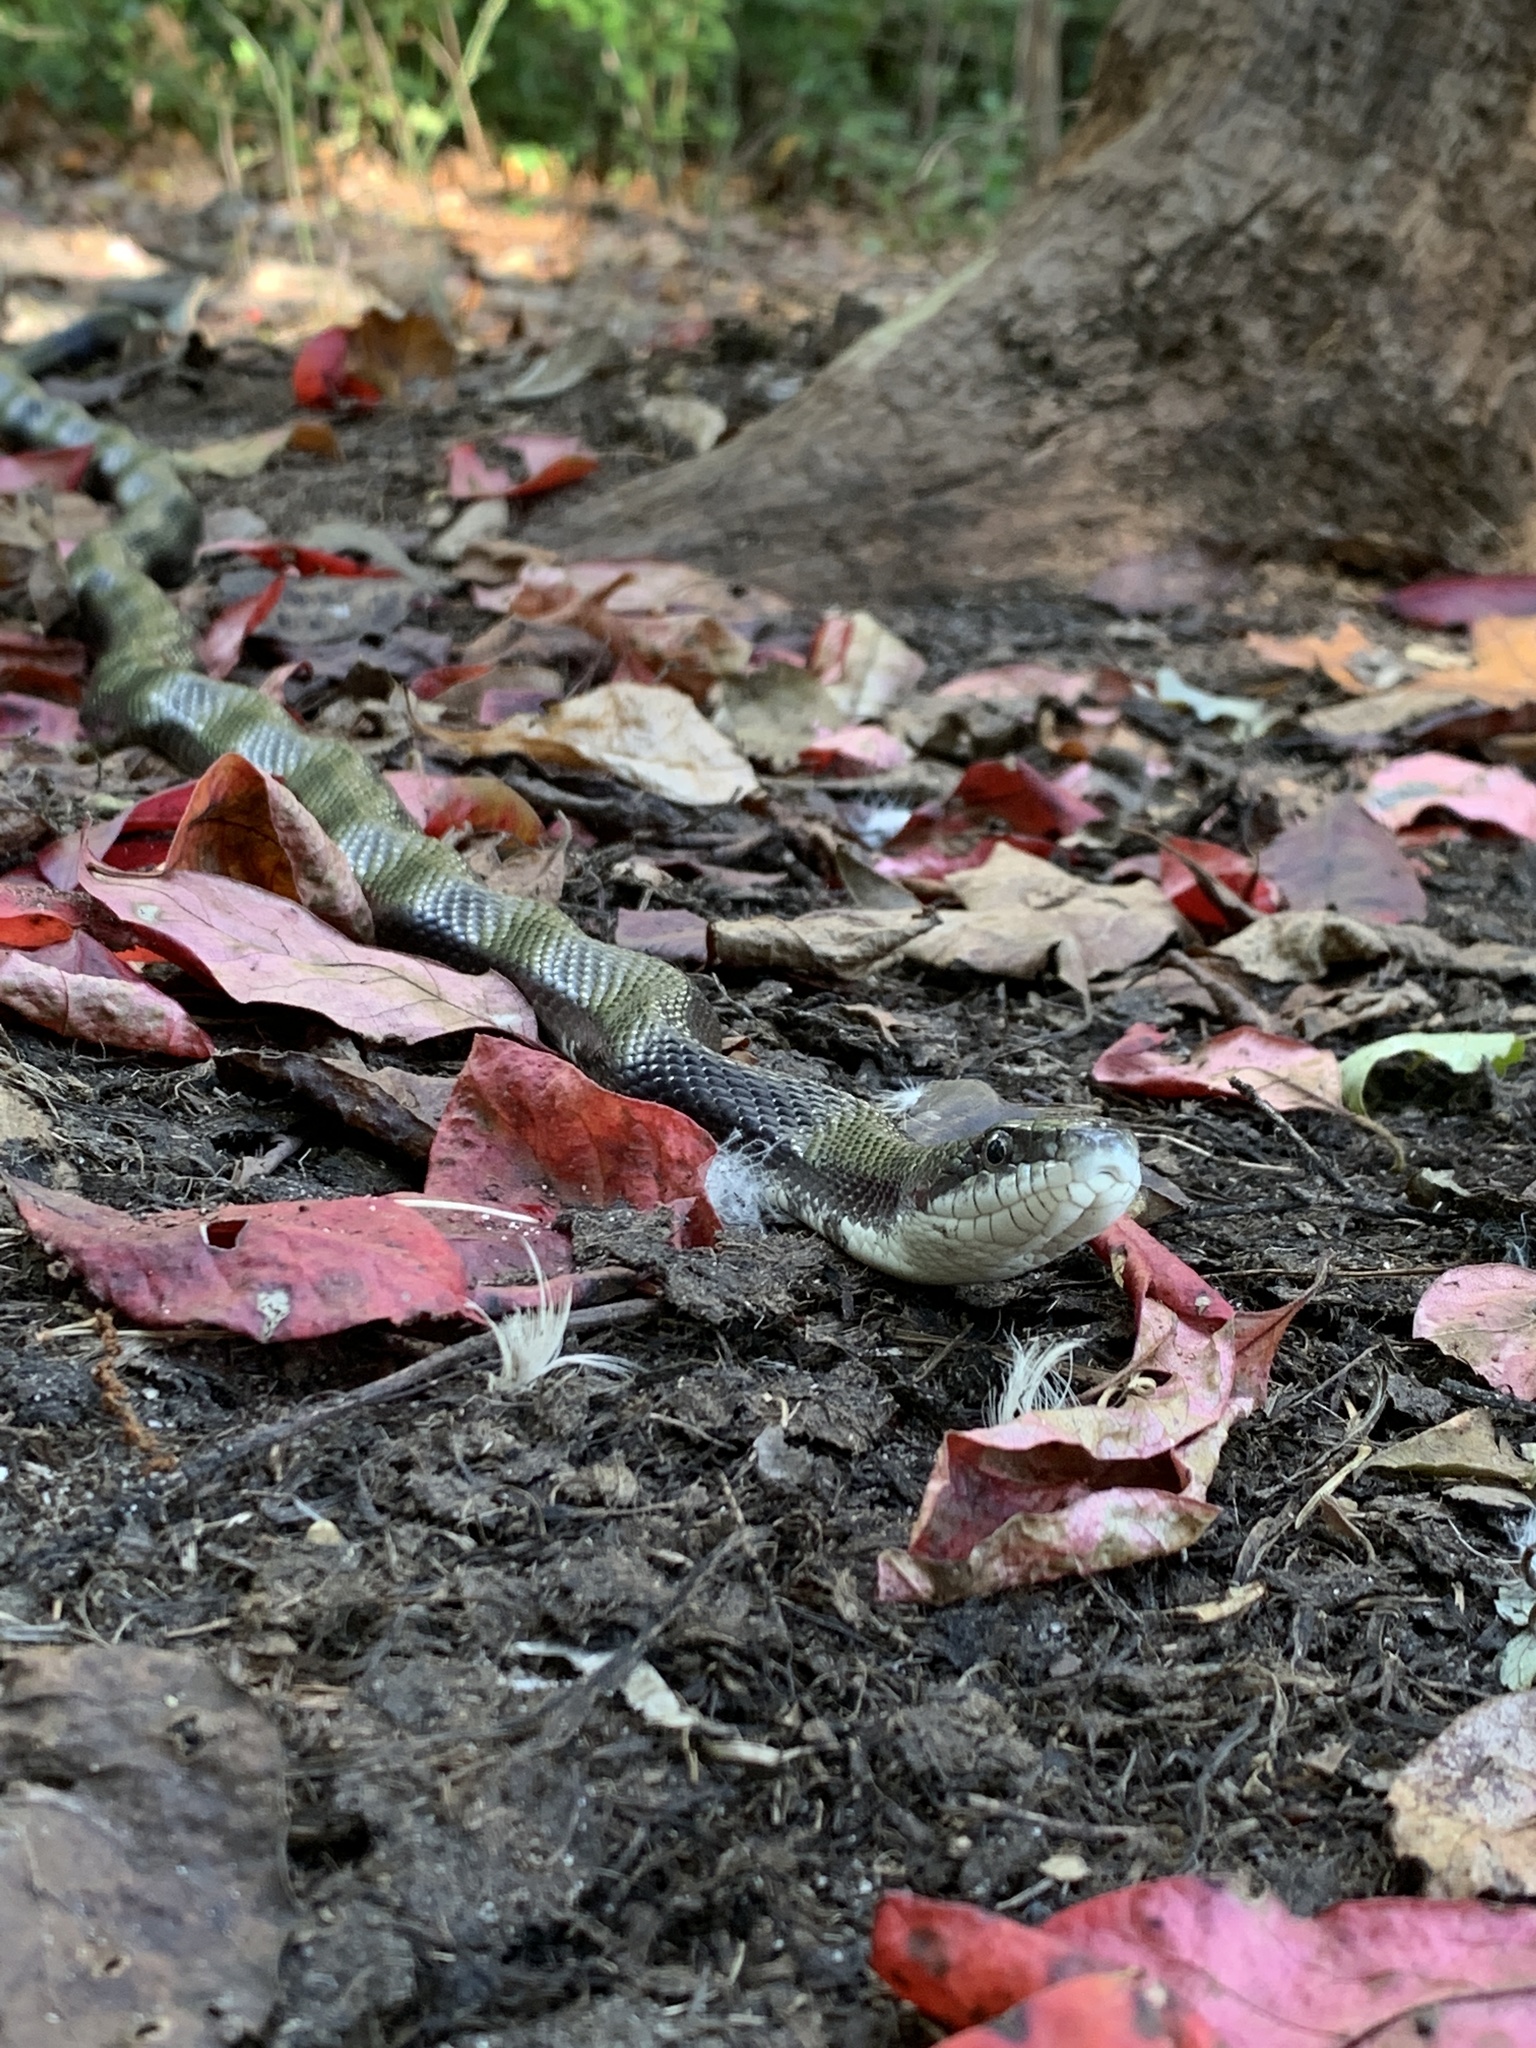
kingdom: Animalia
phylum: Chordata
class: Squamata
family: Colubridae
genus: Pantherophis
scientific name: Pantherophis alleghaniensis
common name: Eastern rat snake
